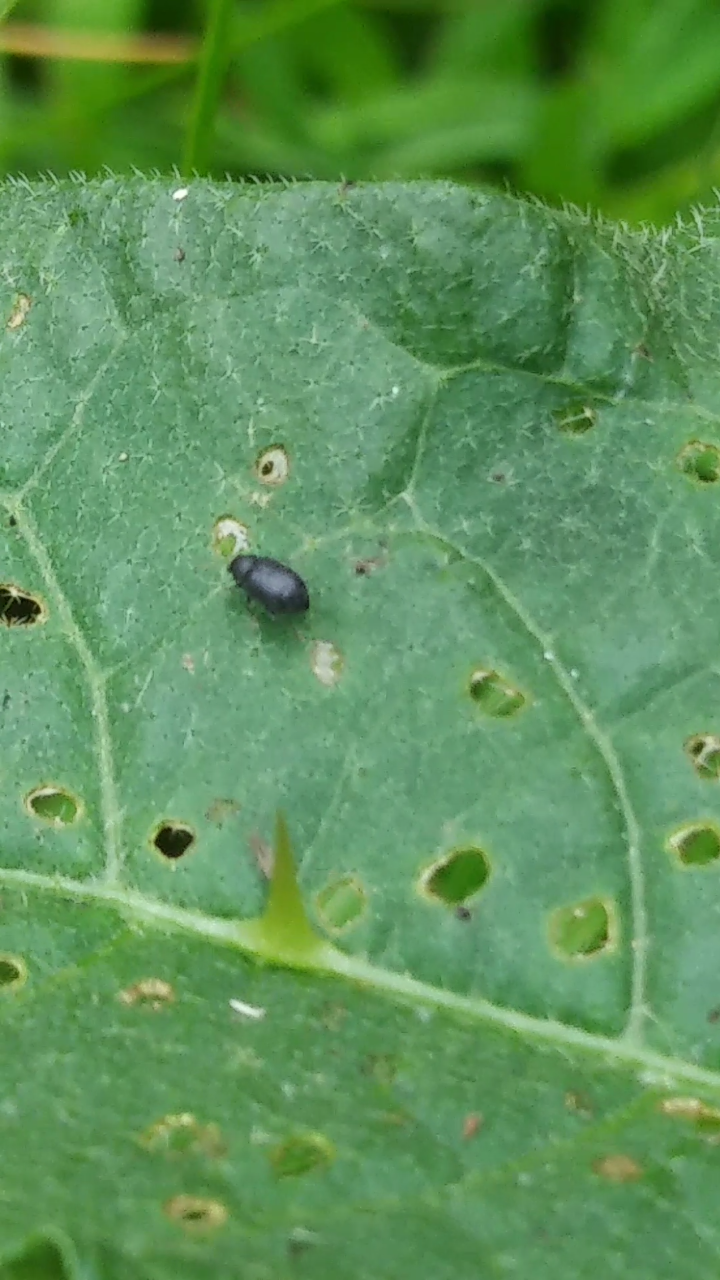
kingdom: Animalia
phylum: Arthropoda
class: Insecta
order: Coleoptera
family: Chrysomelidae
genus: Epitrix
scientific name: Epitrix fuscula
